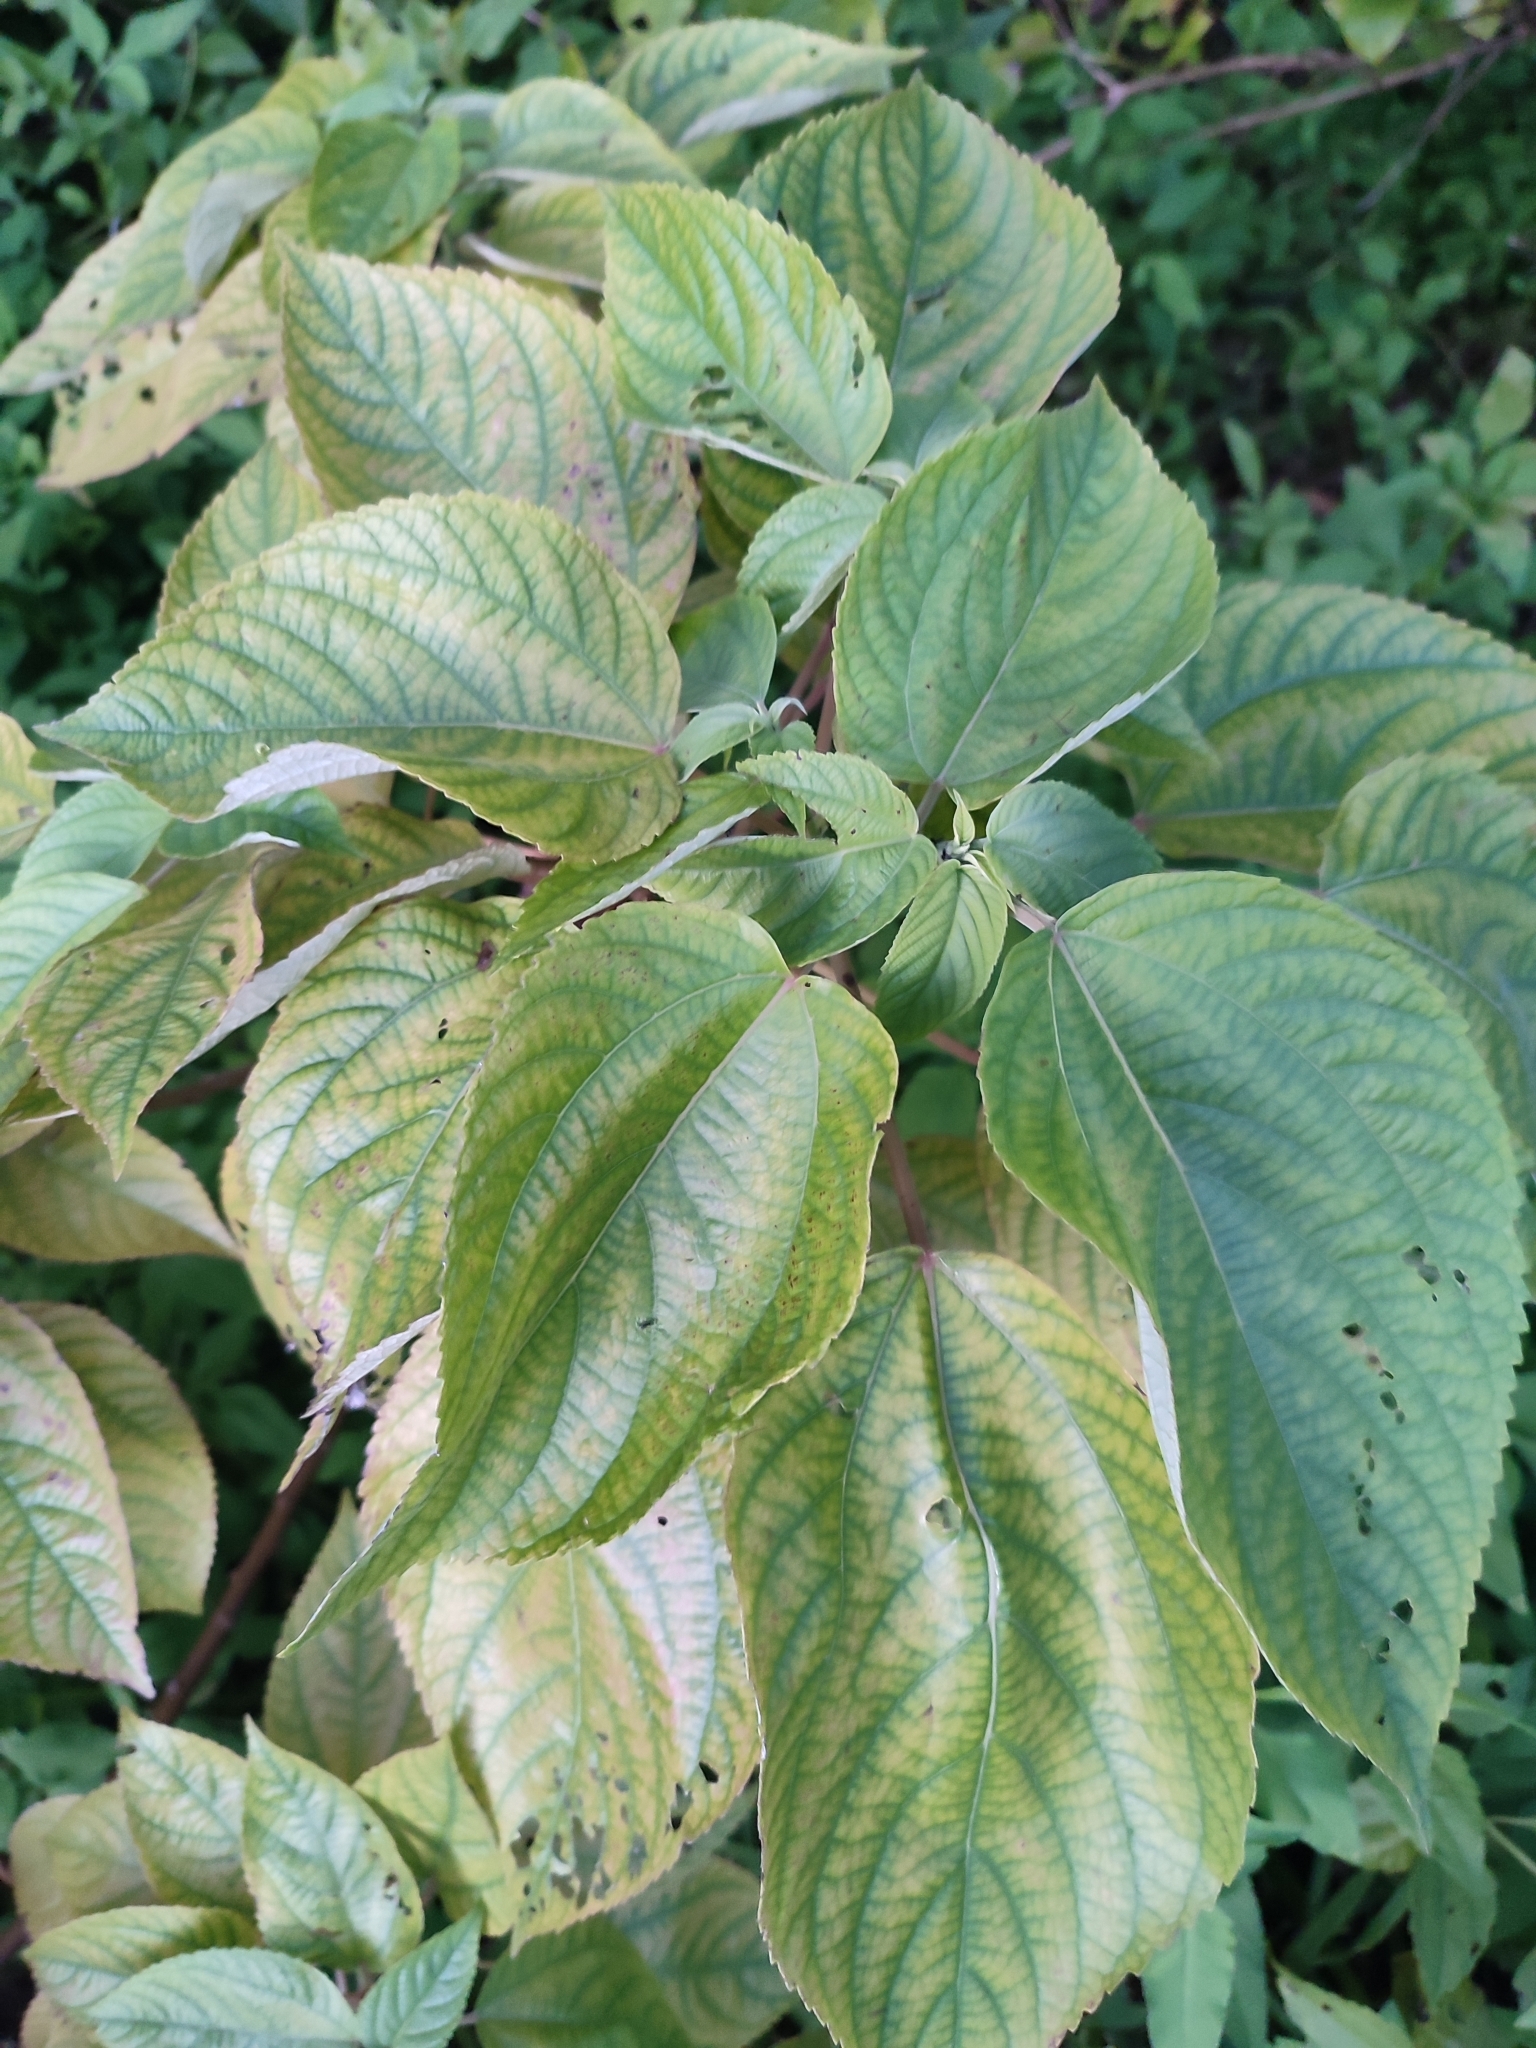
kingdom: Plantae
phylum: Tracheophyta
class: Magnoliopsida
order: Rosales
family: Urticaceae
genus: Pipturus
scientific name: Pipturus argenteus
